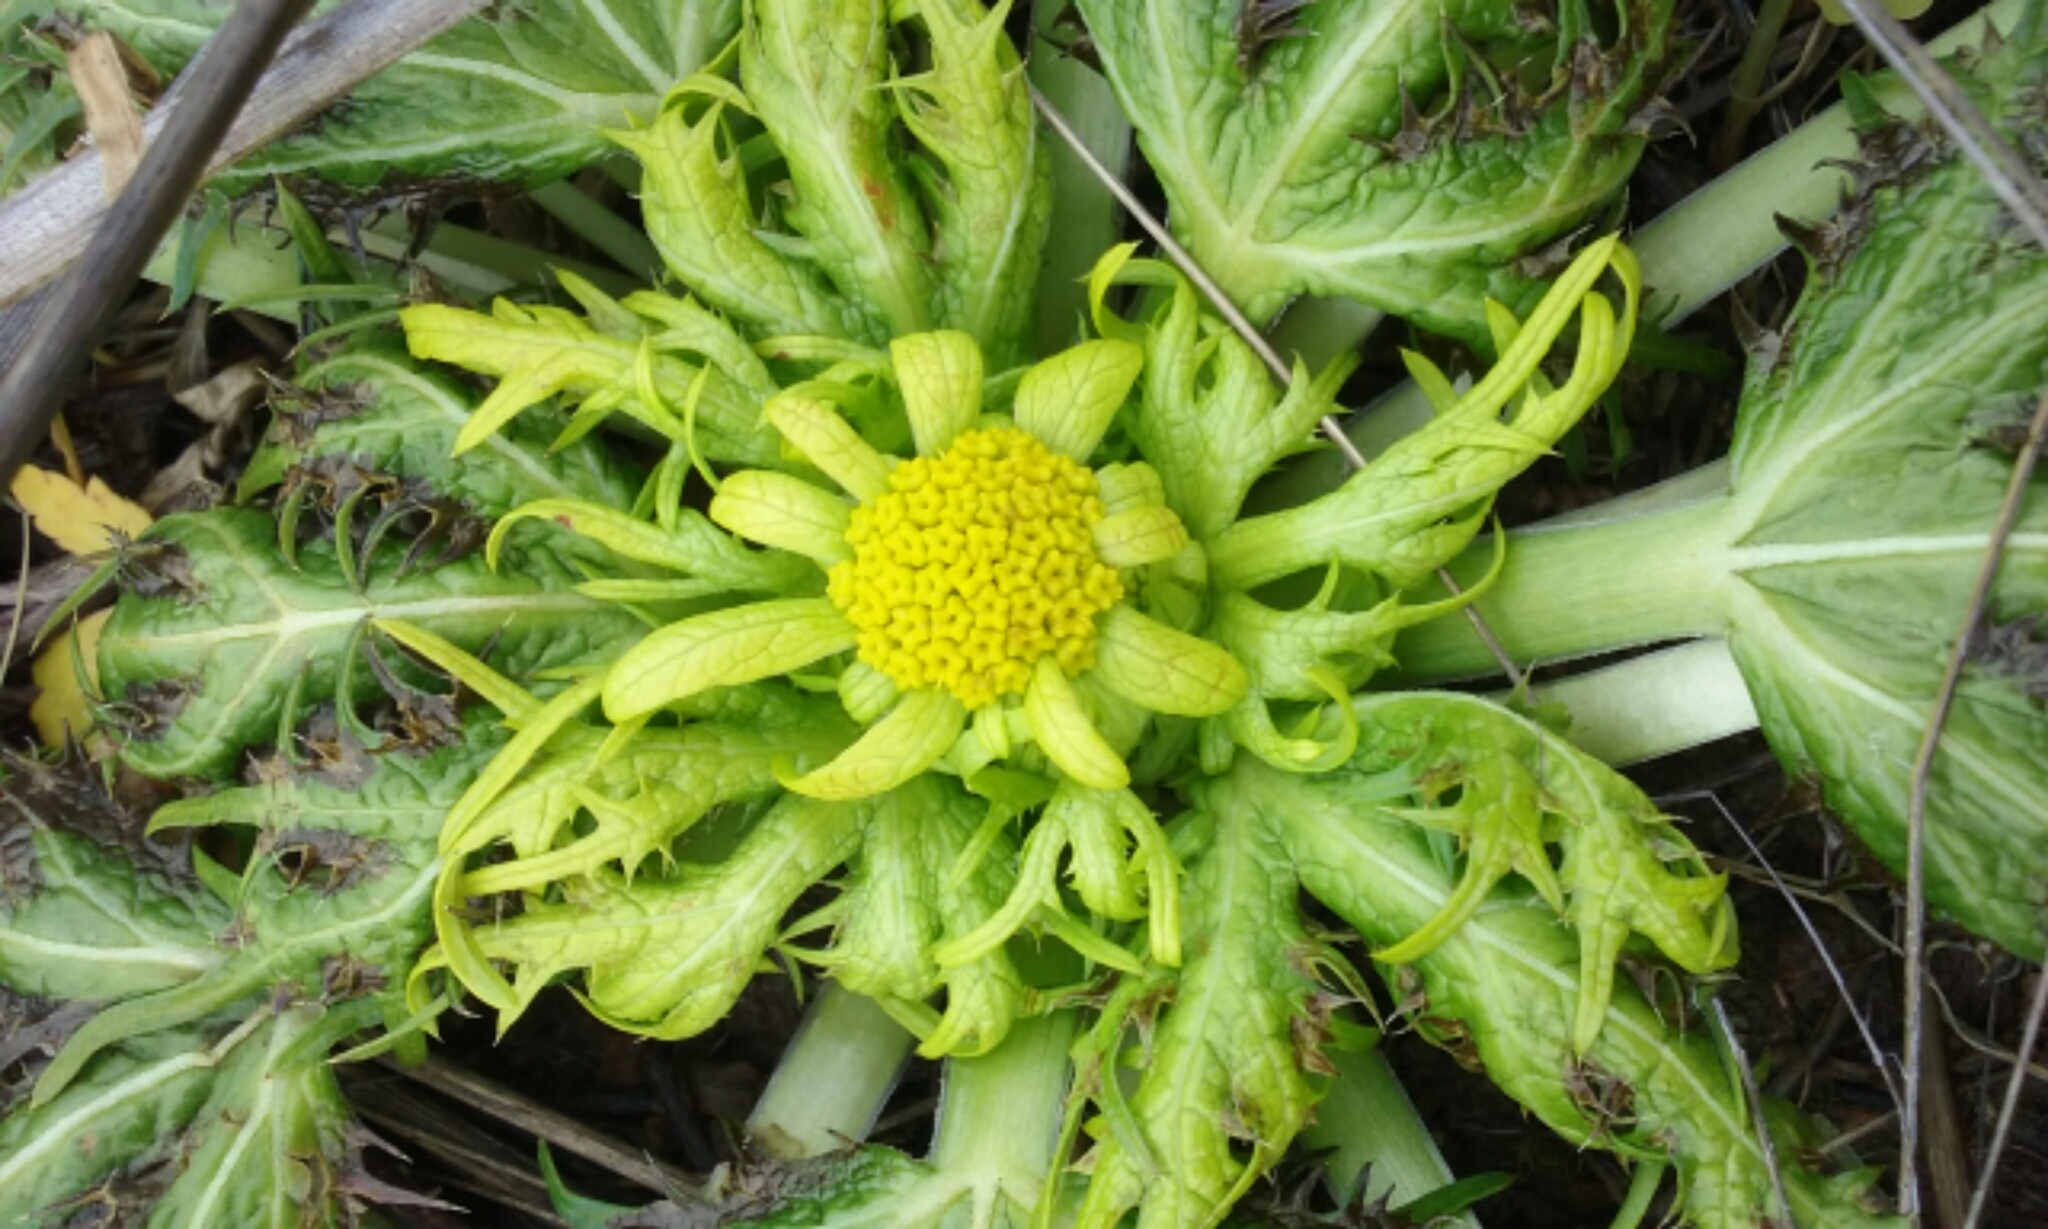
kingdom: Plantae
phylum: Tracheophyta
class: Magnoliopsida
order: Apiales
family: Apiaceae
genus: Sanicula
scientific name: Sanicula arctopoides
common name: Footsteps-of-spring
